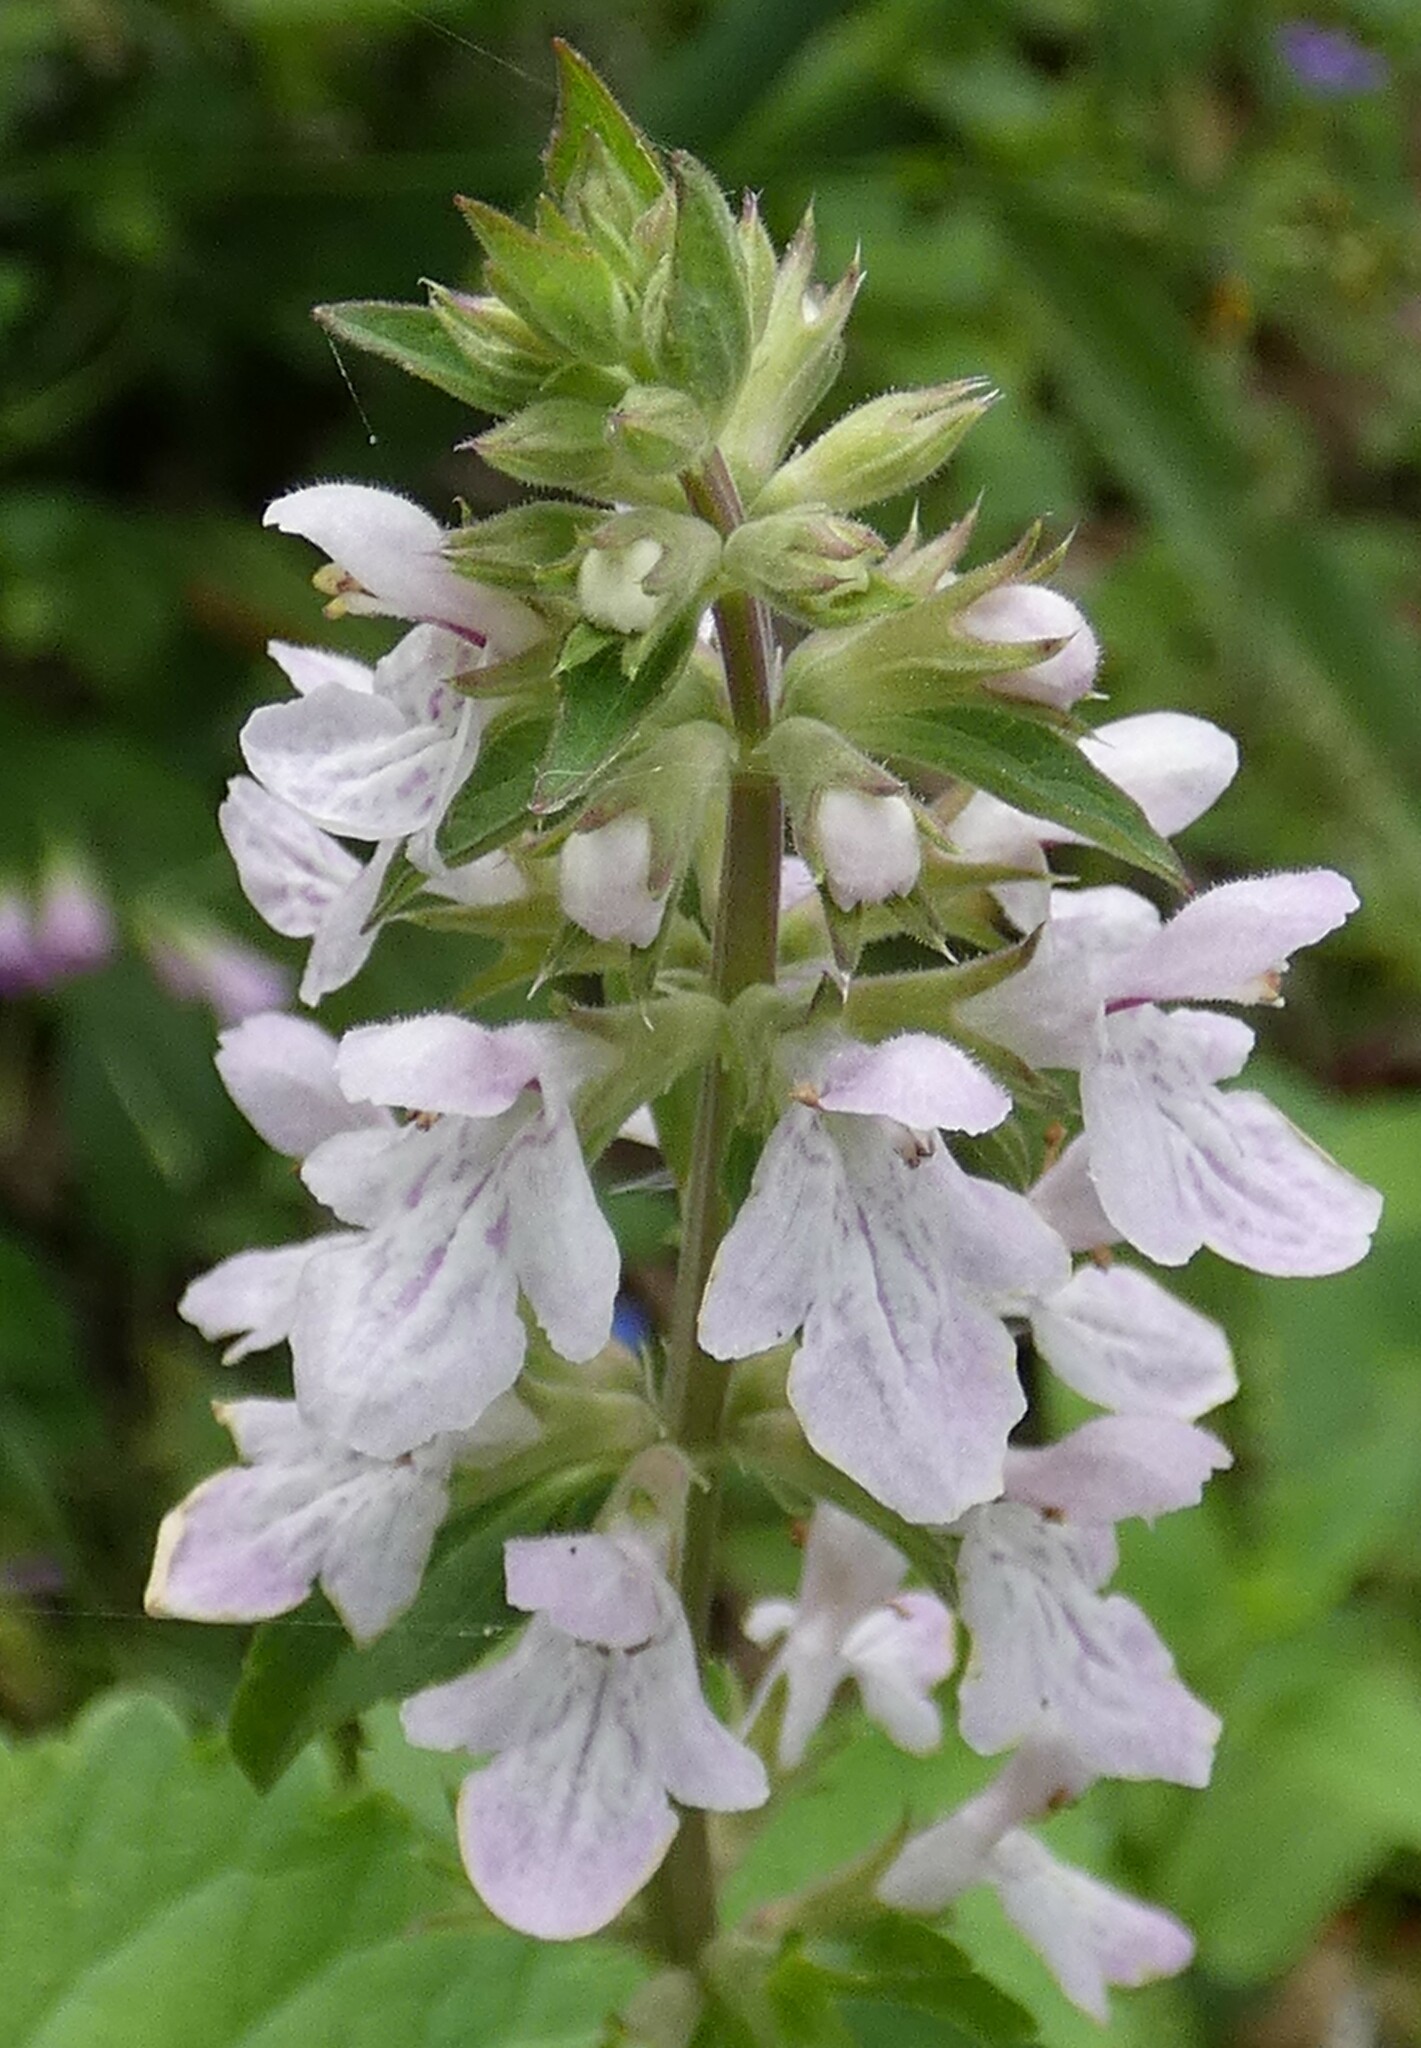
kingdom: Plantae
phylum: Tracheophyta
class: Magnoliopsida
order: Lamiales
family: Lamiaceae
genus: Stachys
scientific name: Stachys floridana
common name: Florida betony
